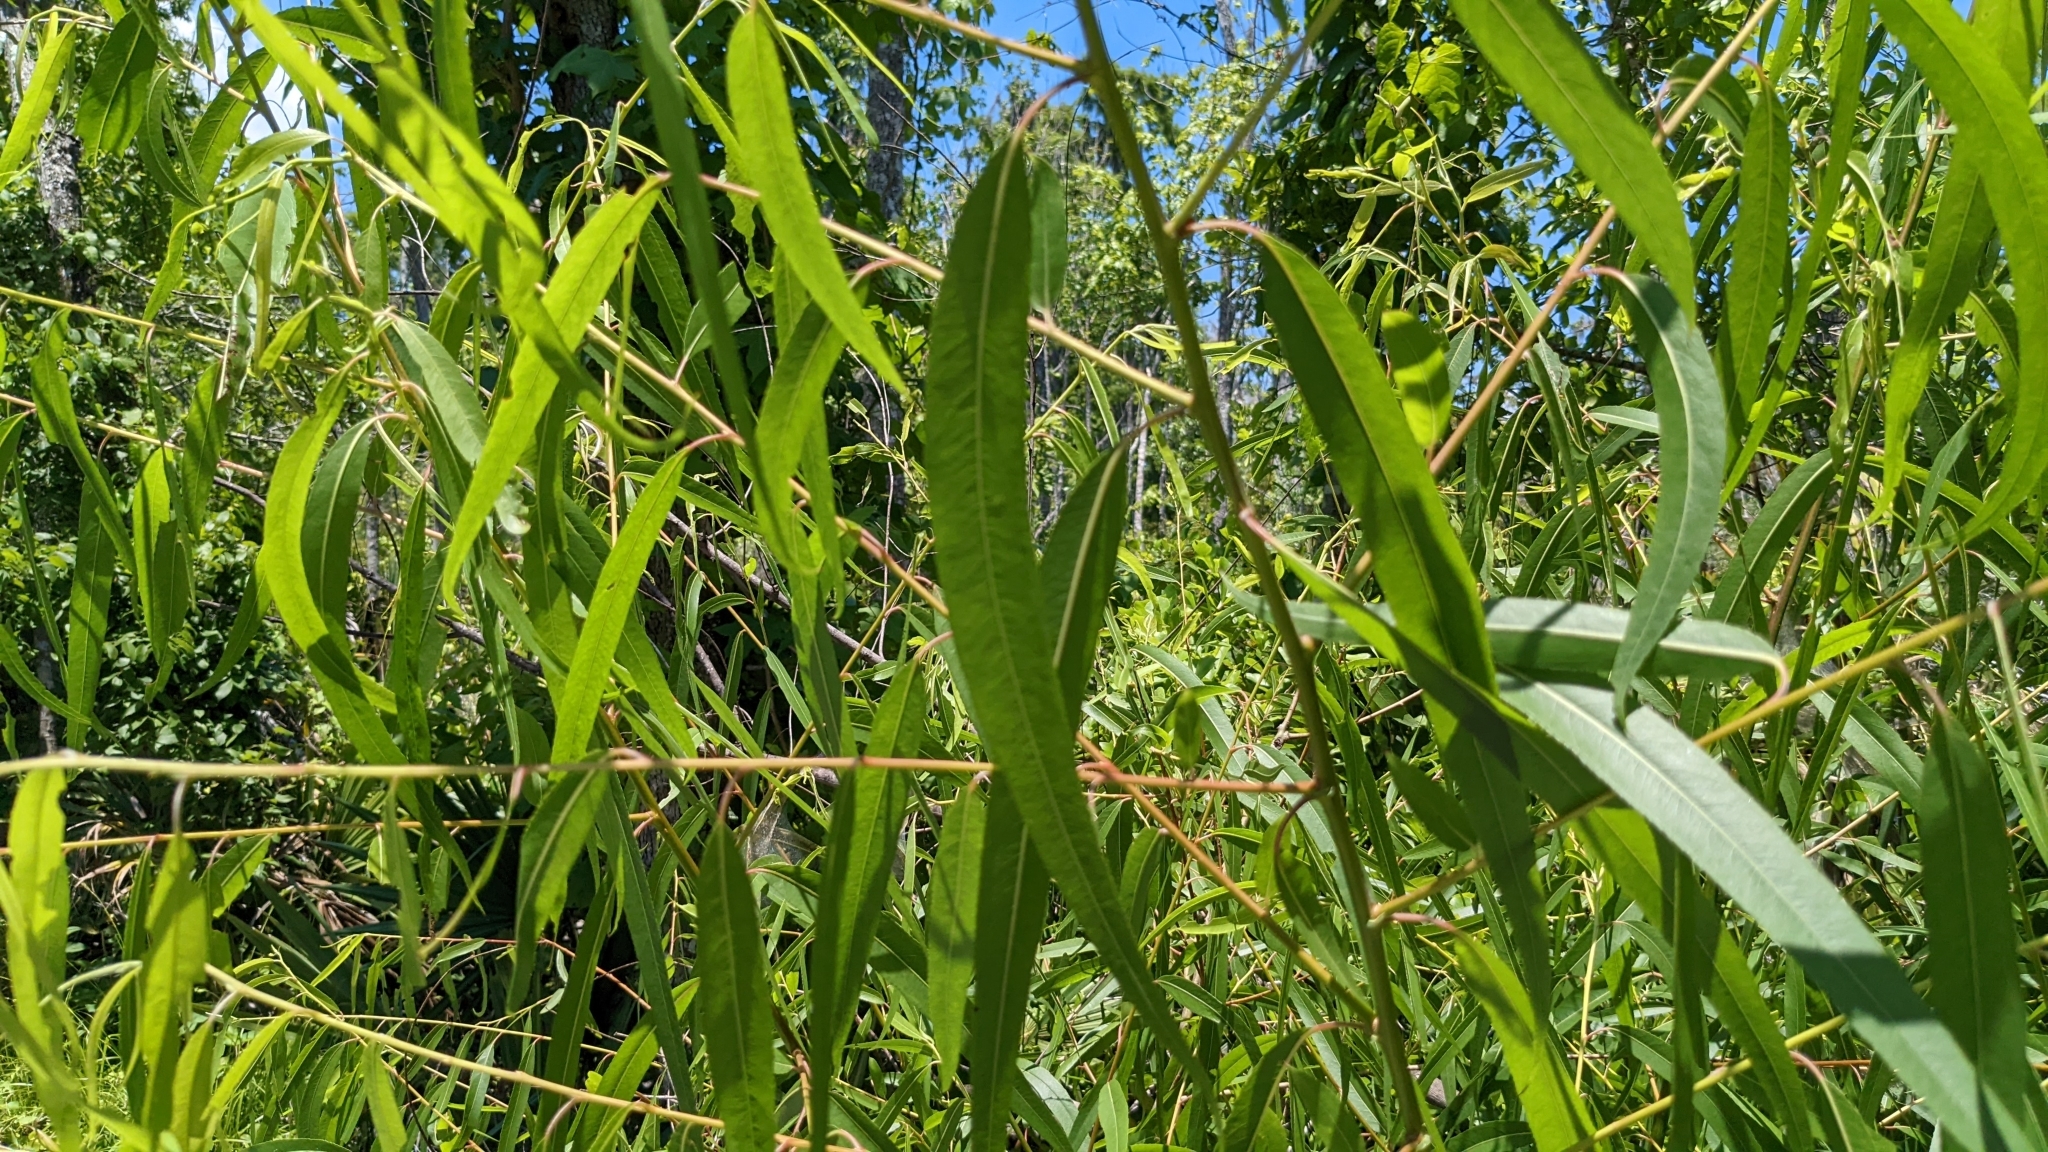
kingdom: Plantae
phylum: Tracheophyta
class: Magnoliopsida
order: Malpighiales
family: Salicaceae
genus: Salix
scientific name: Salix nigra
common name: Black willow
